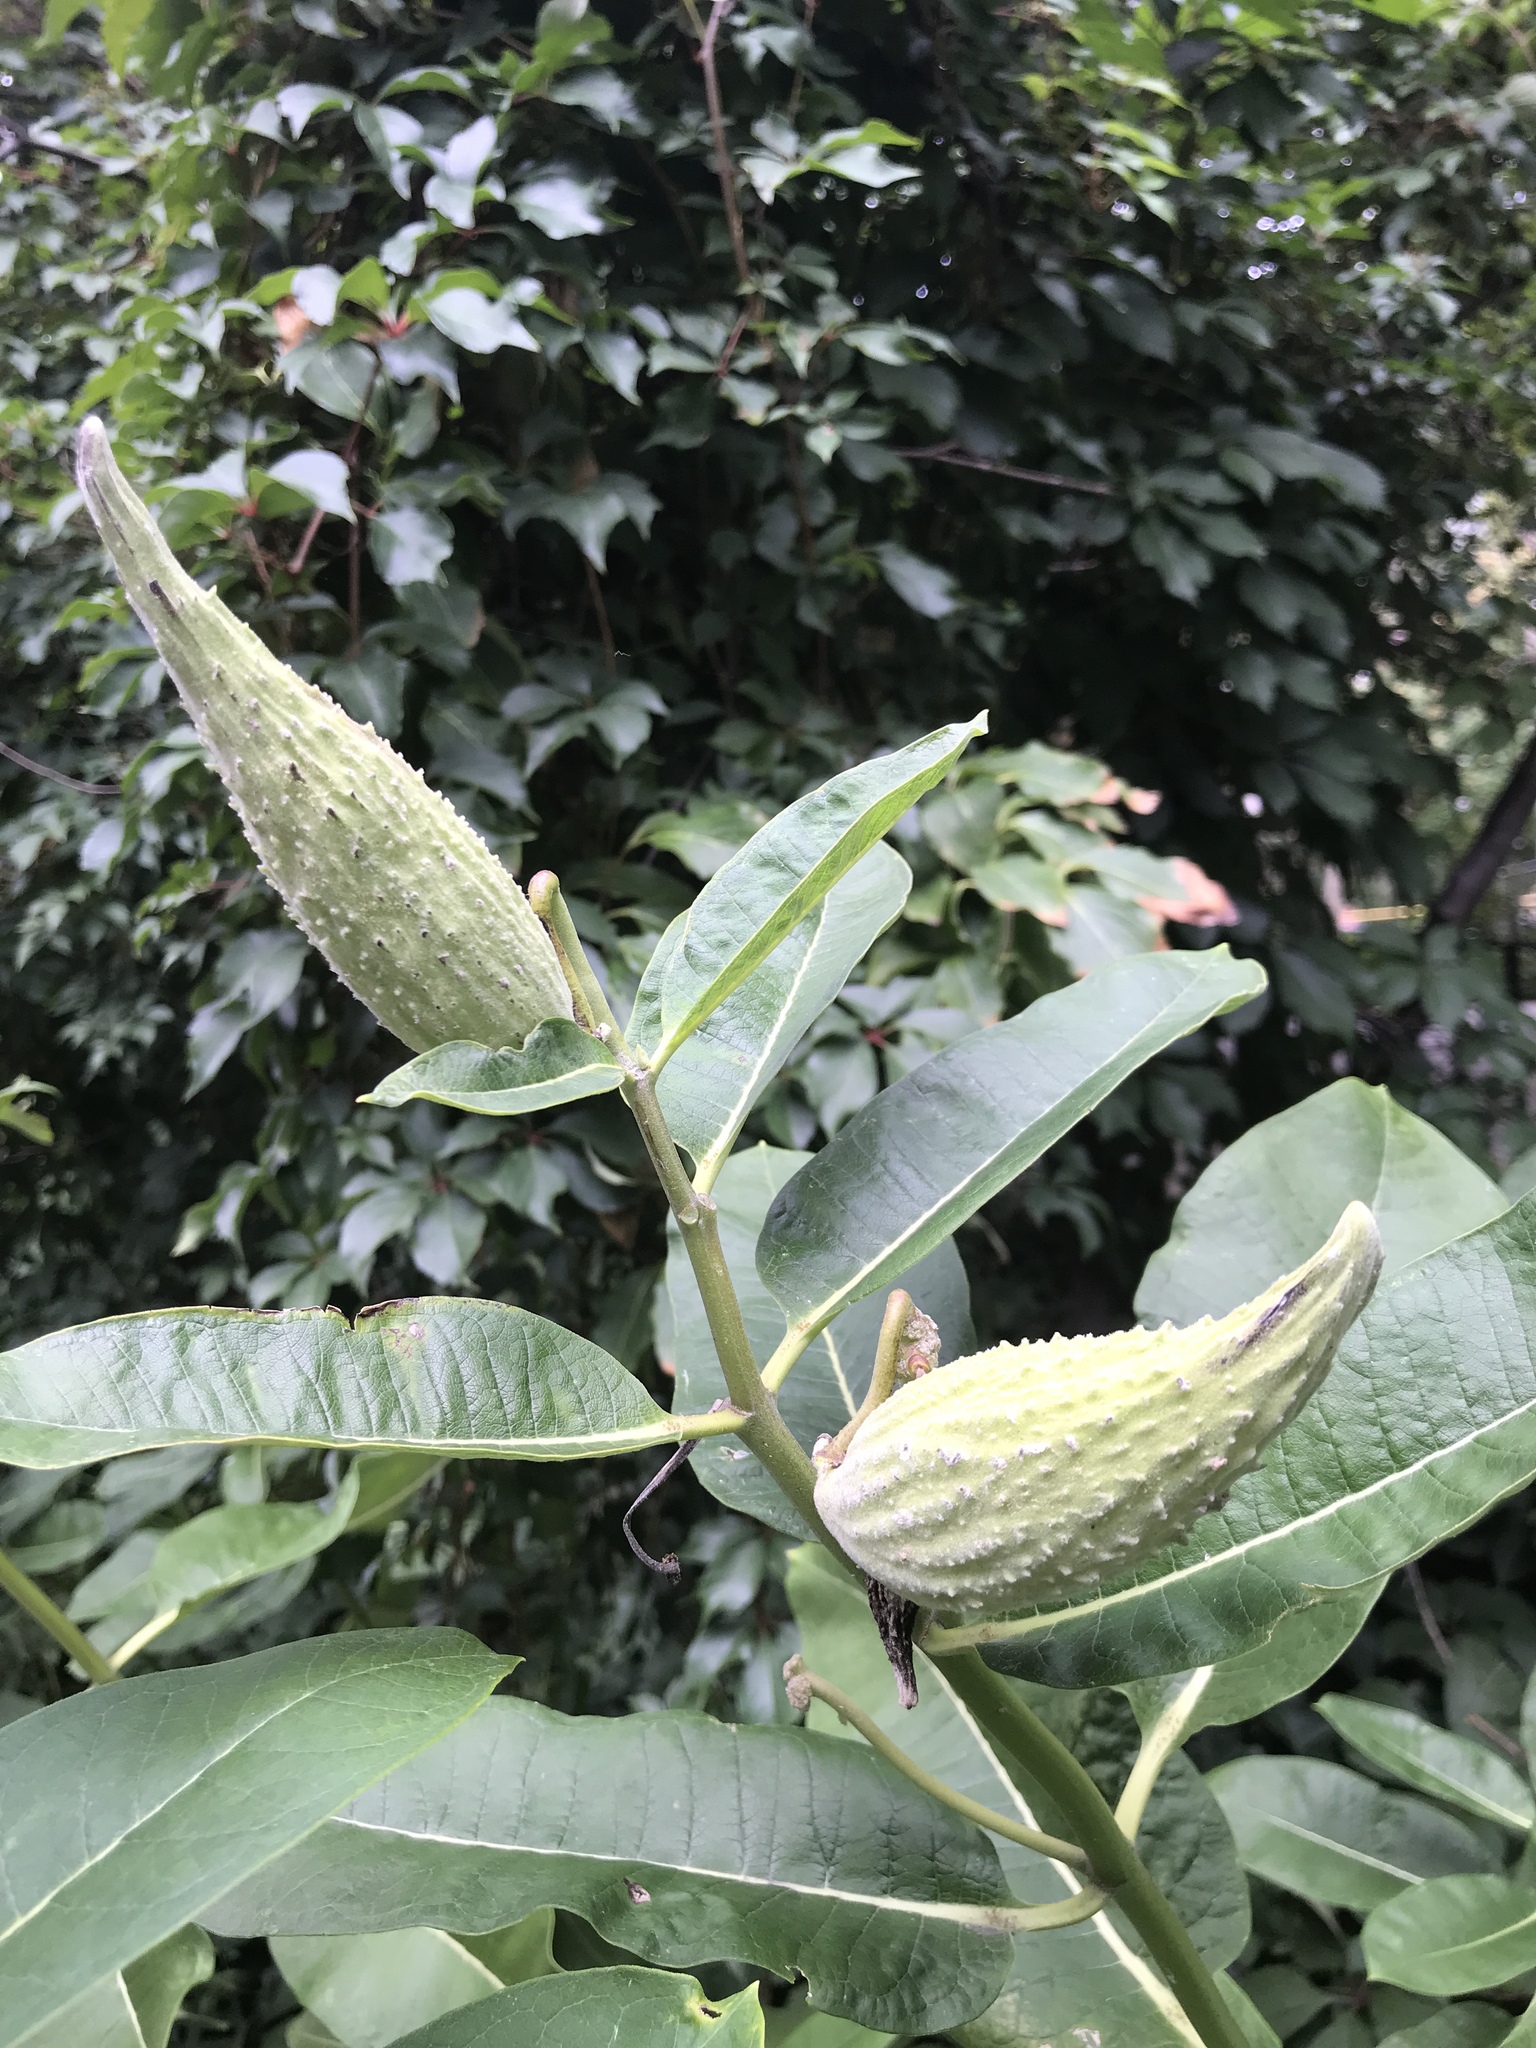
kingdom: Plantae
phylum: Tracheophyta
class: Magnoliopsida
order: Gentianales
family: Apocynaceae
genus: Asclepias
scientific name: Asclepias syriaca
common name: Common milkweed
